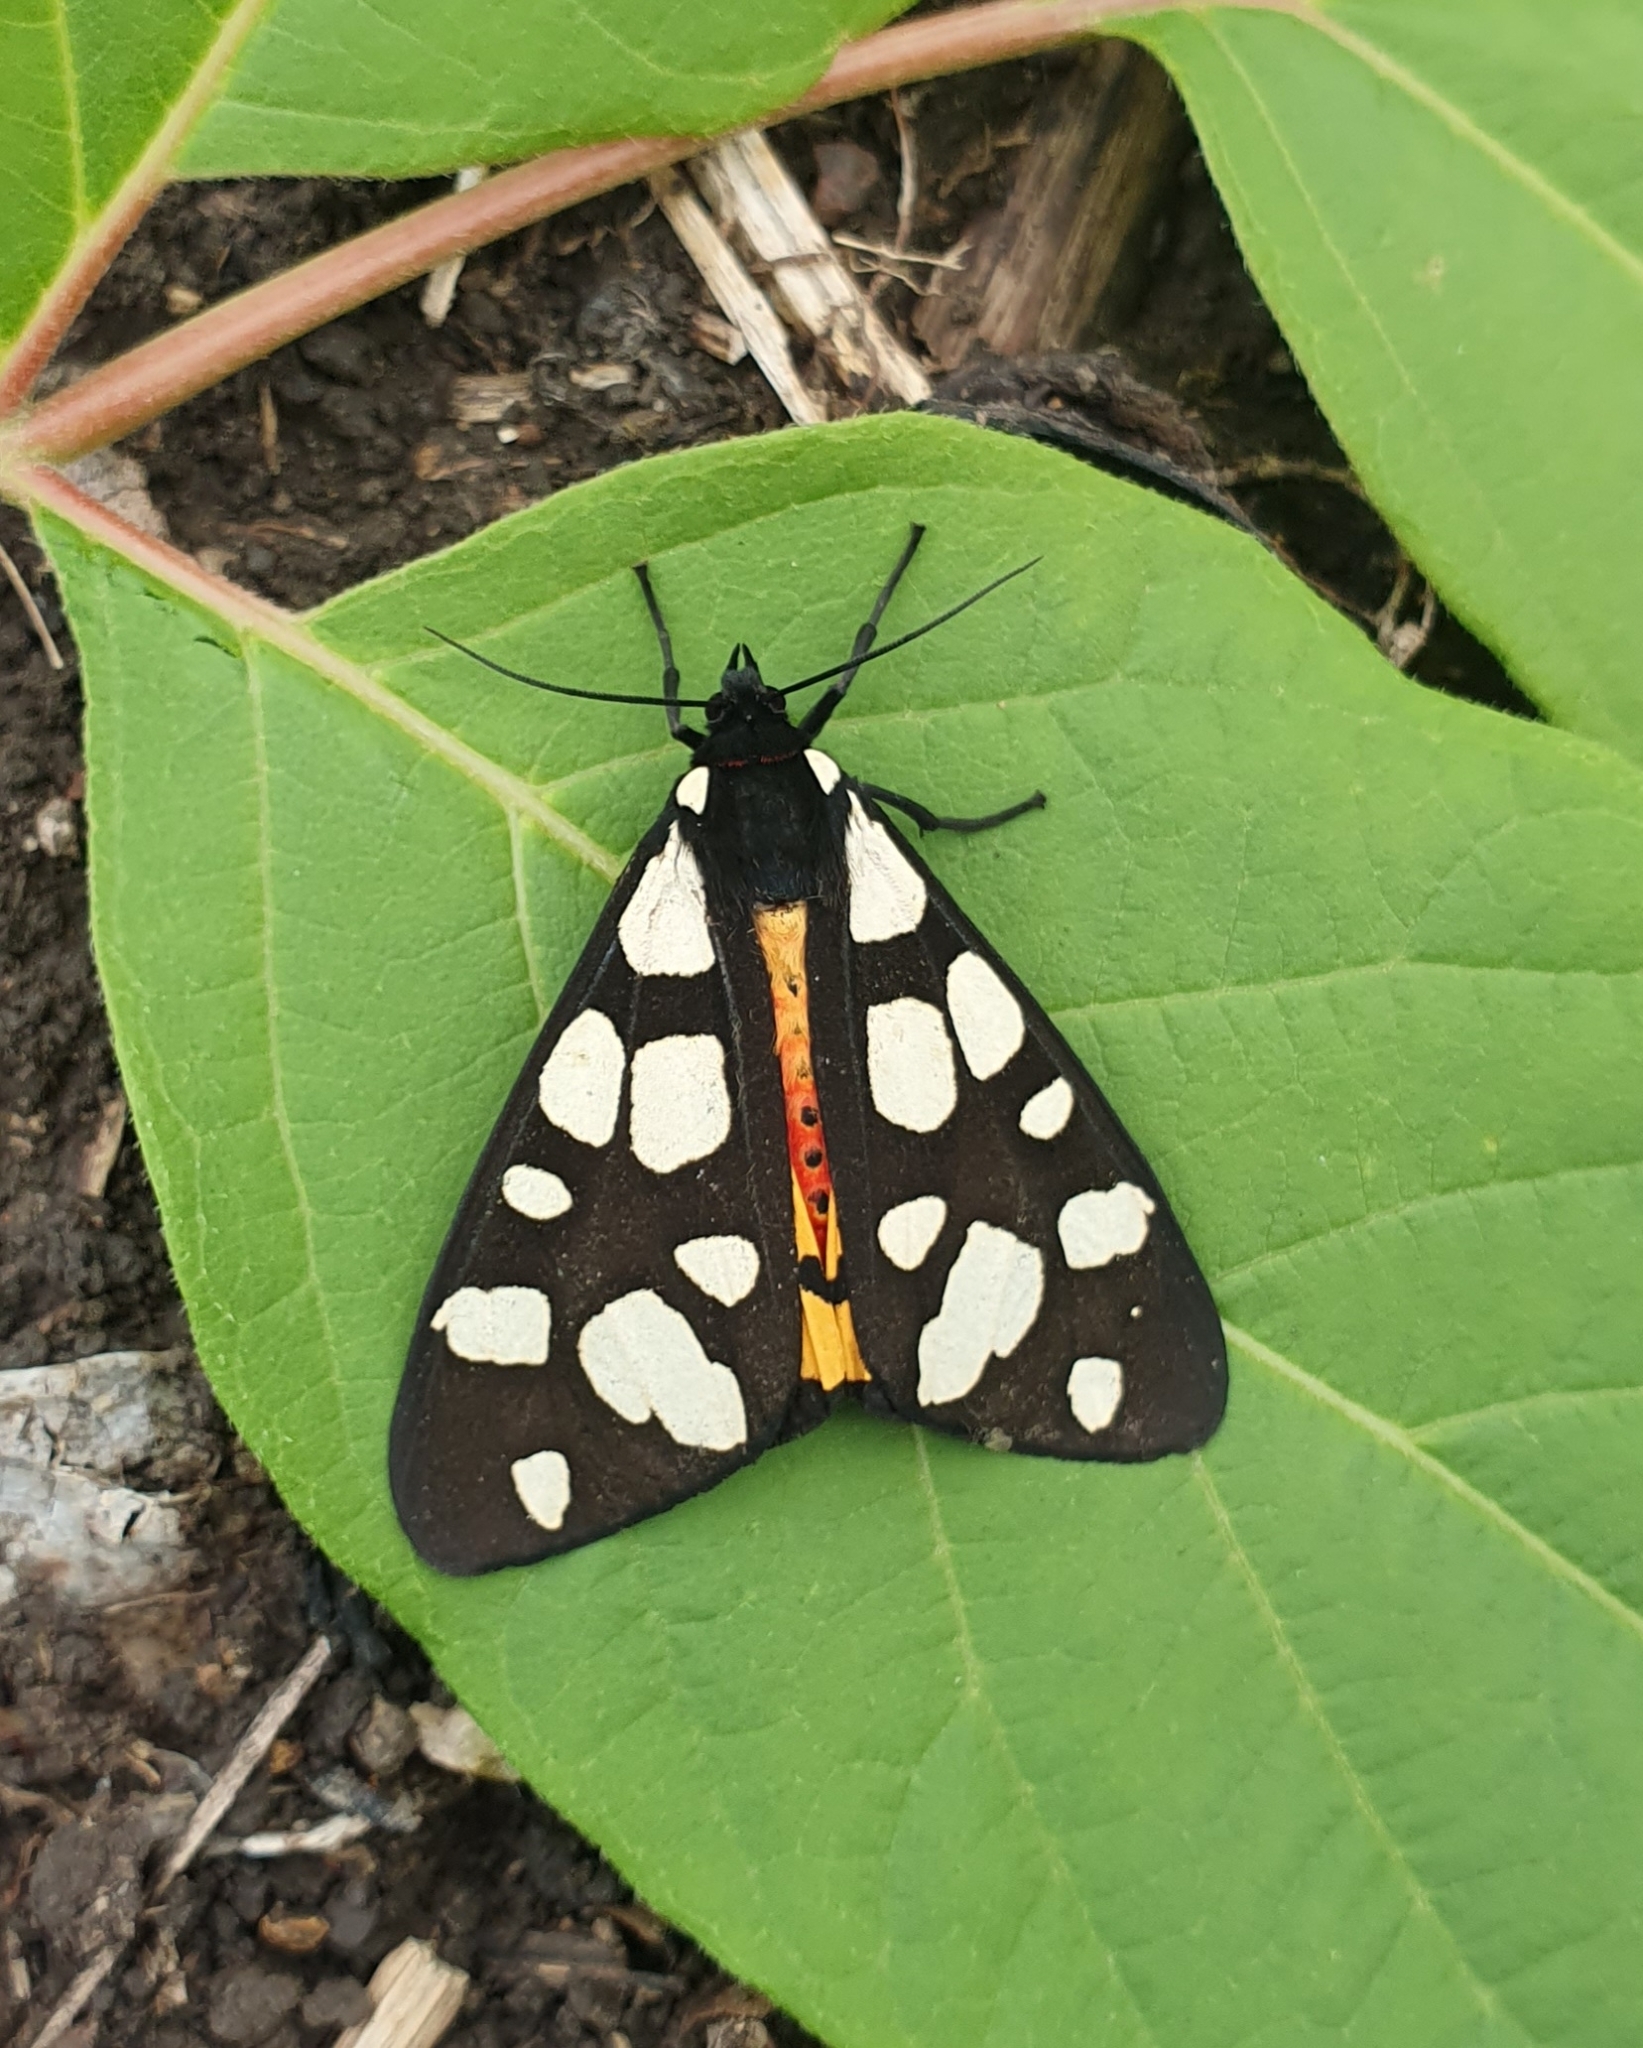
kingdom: Animalia
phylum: Arthropoda
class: Insecta
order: Lepidoptera
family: Erebidae
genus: Epicallia
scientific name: Epicallia villica
